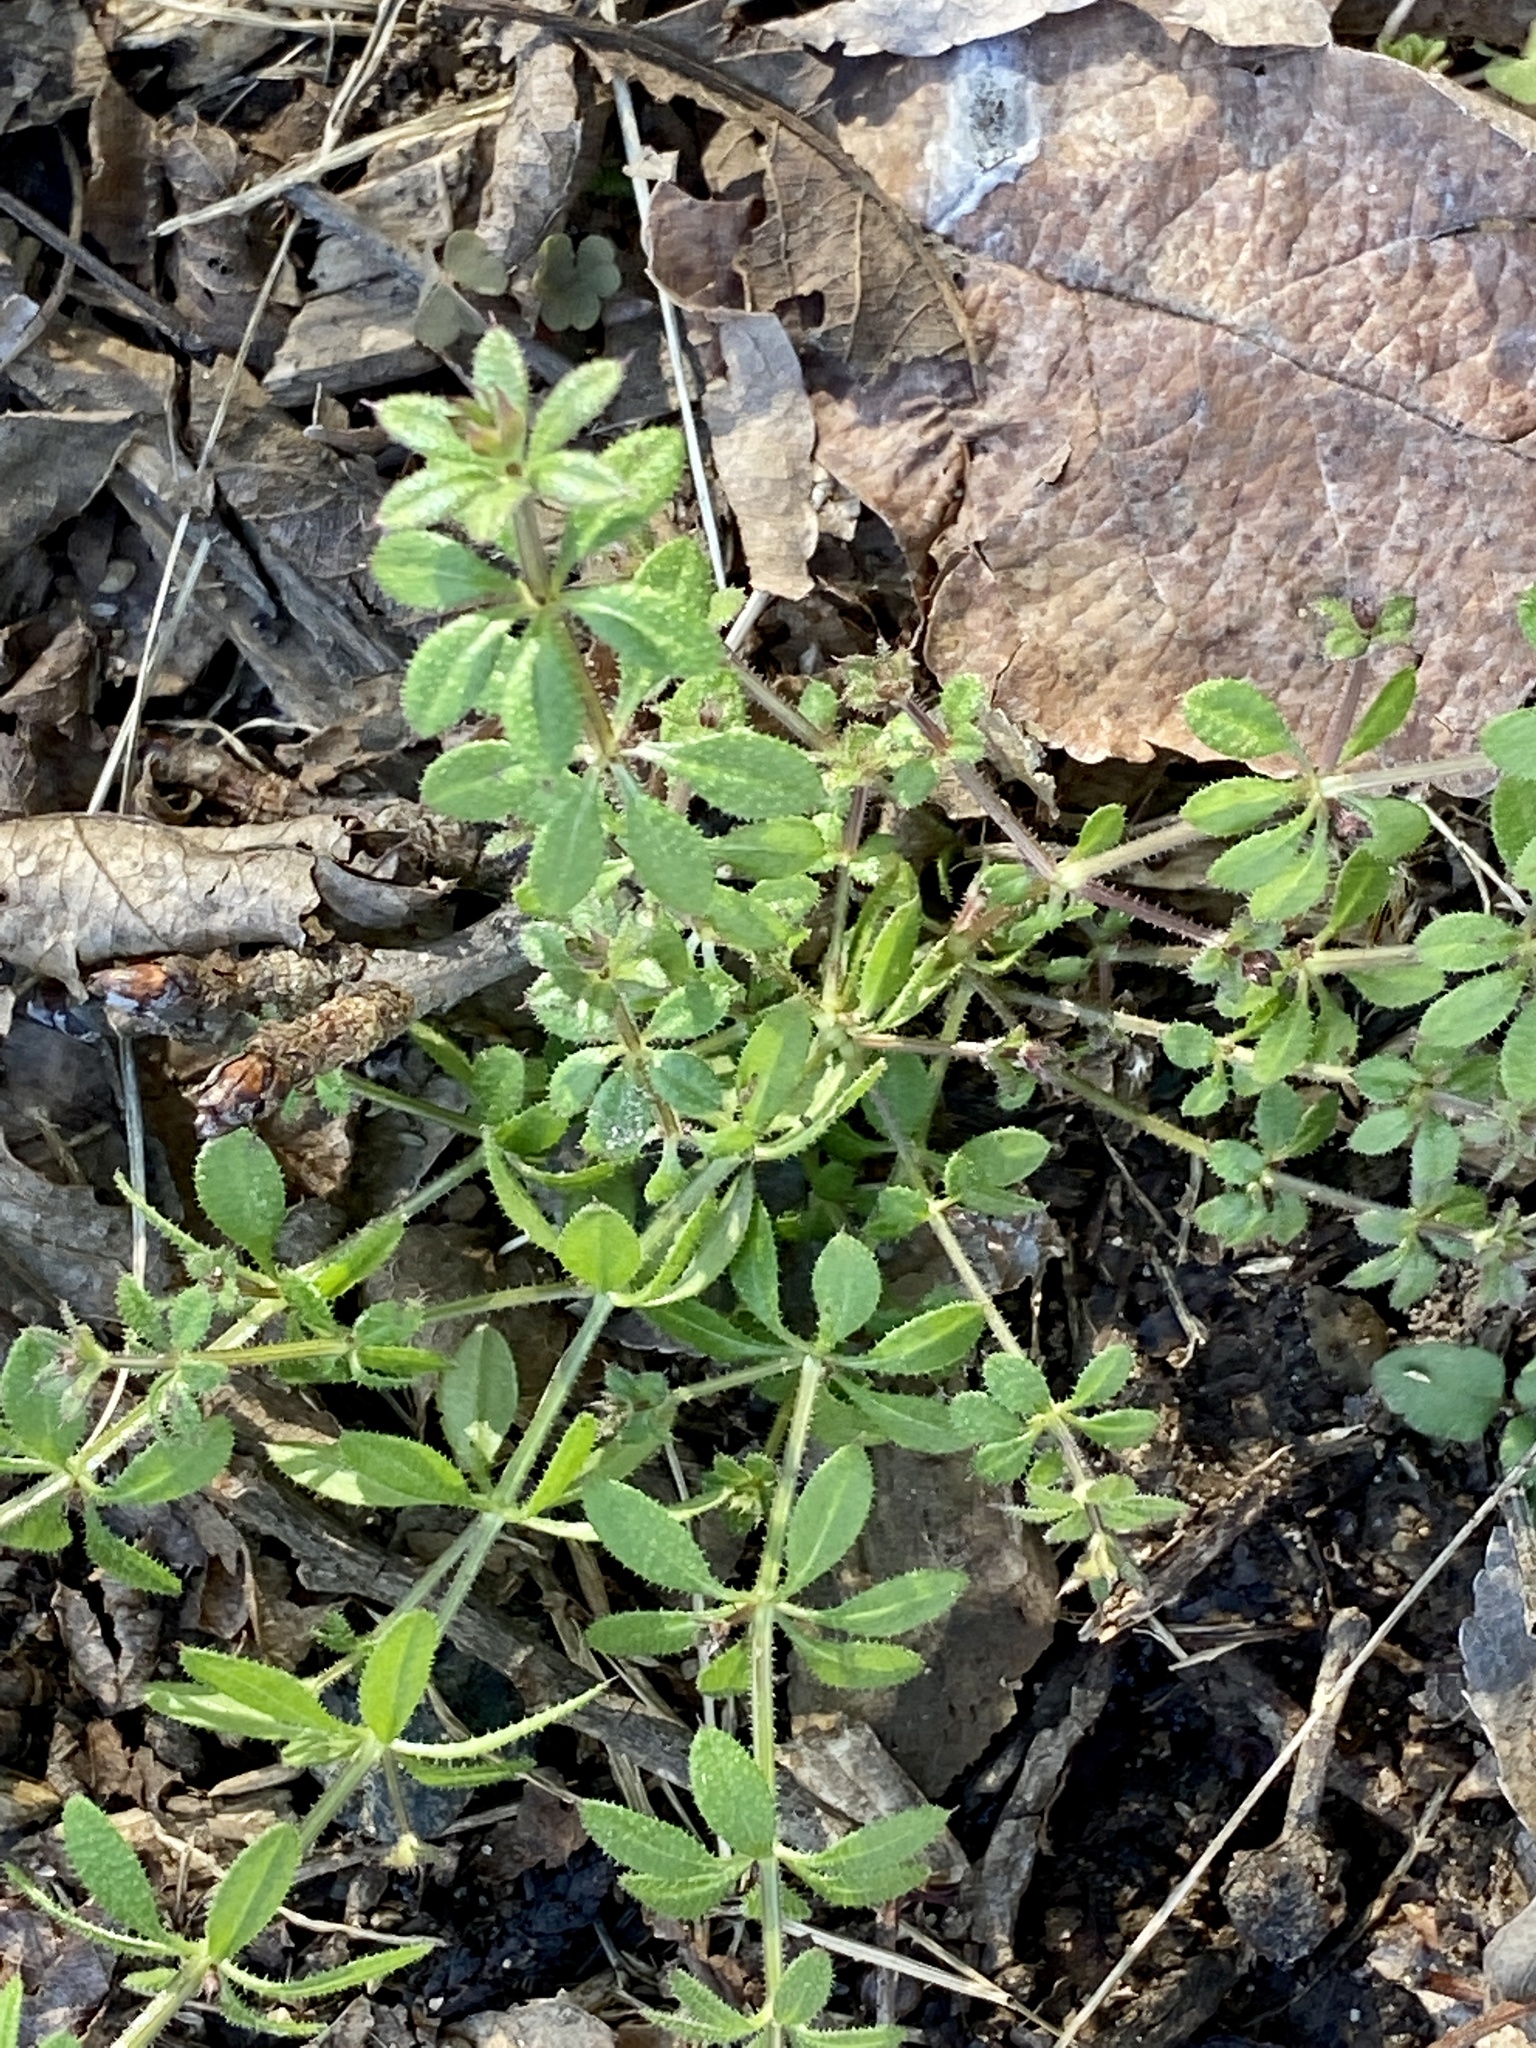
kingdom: Plantae
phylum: Tracheophyta
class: Magnoliopsida
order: Gentianales
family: Rubiaceae
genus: Galium
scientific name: Galium aparine
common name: Cleavers
